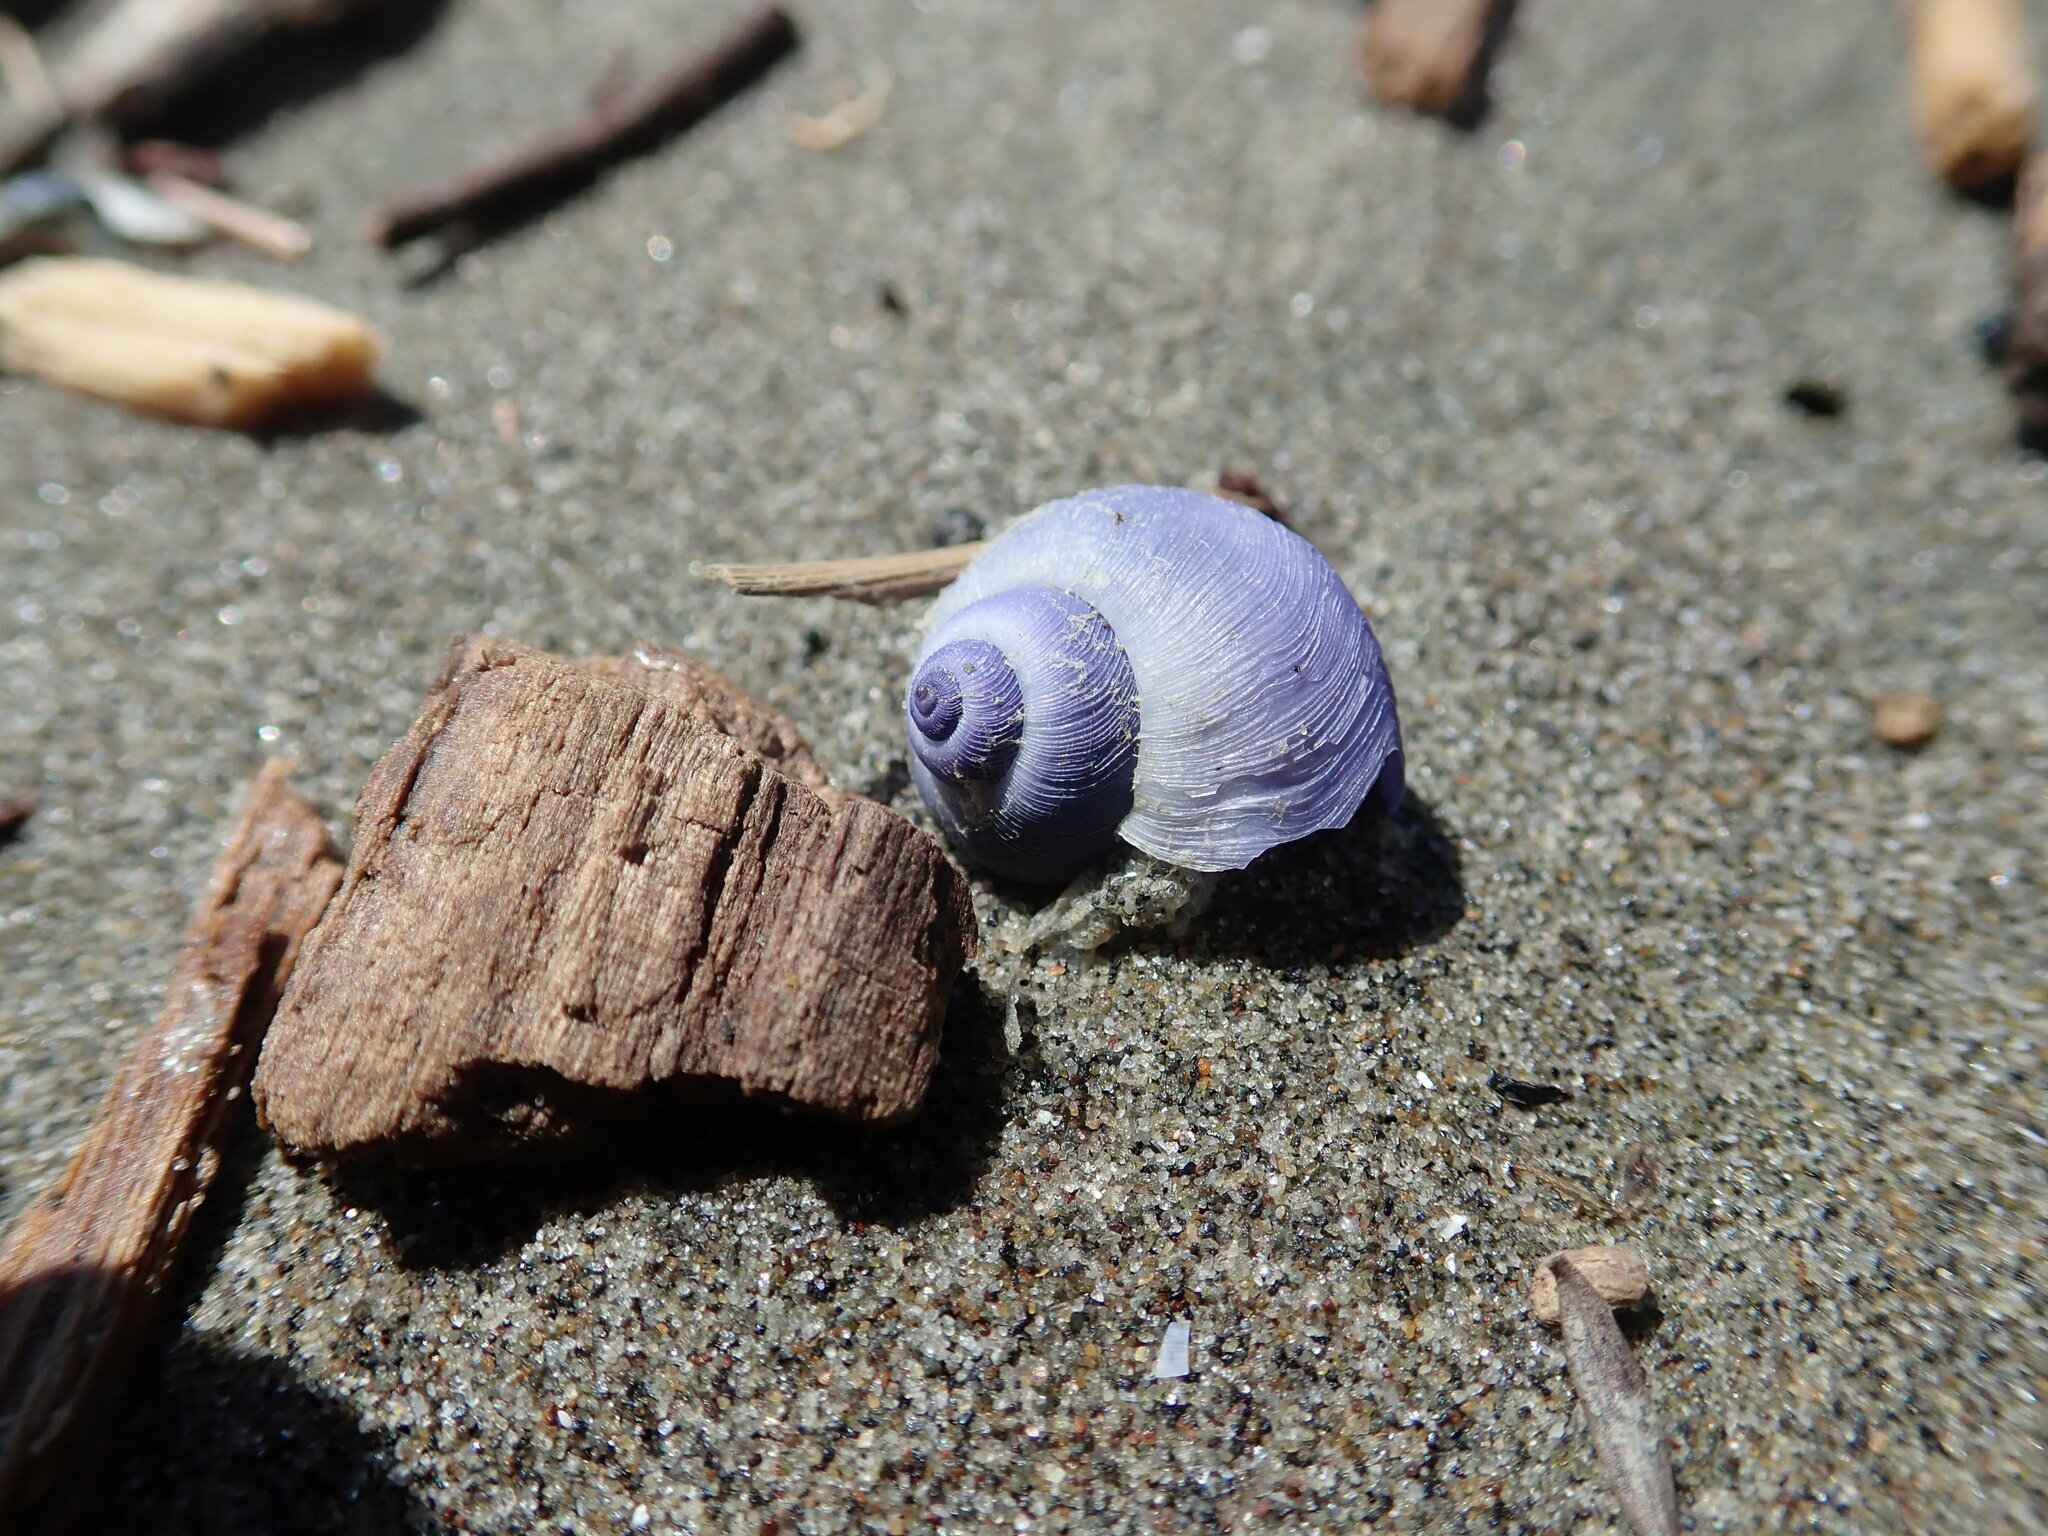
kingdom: Animalia
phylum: Mollusca
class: Gastropoda
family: Epitoniidae
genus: Janthina
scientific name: Janthina exigua
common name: Dwarf janthina
